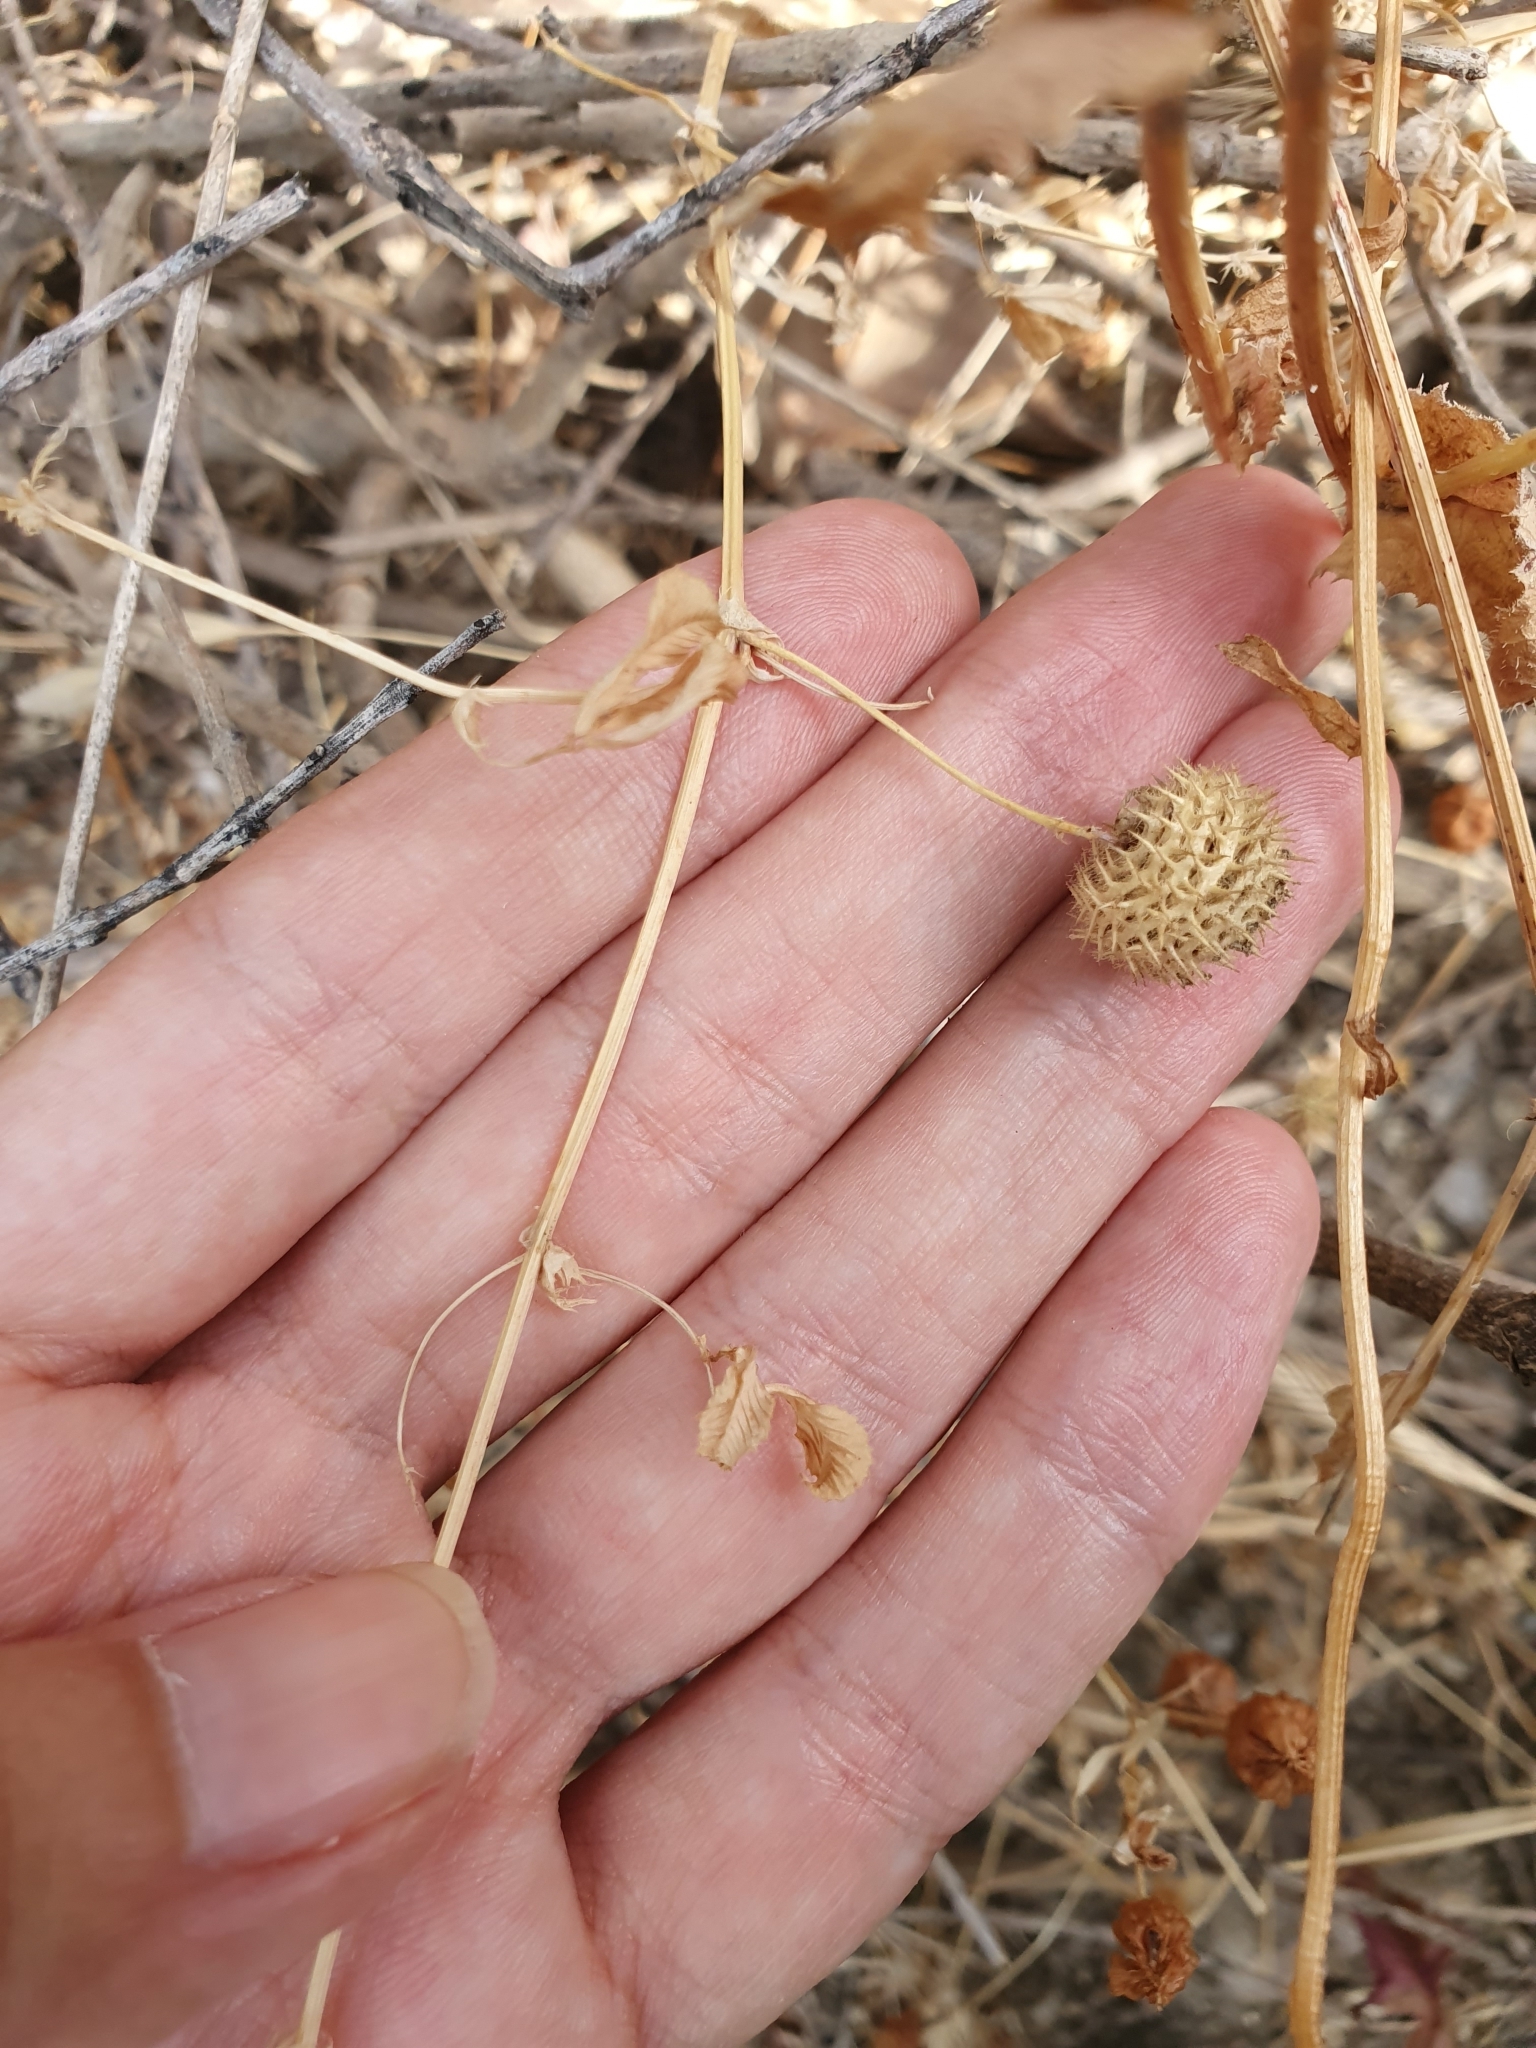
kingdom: Plantae
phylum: Tracheophyta
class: Magnoliopsida
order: Fabales
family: Fabaceae
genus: Medicago
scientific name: Medicago ciliaris
